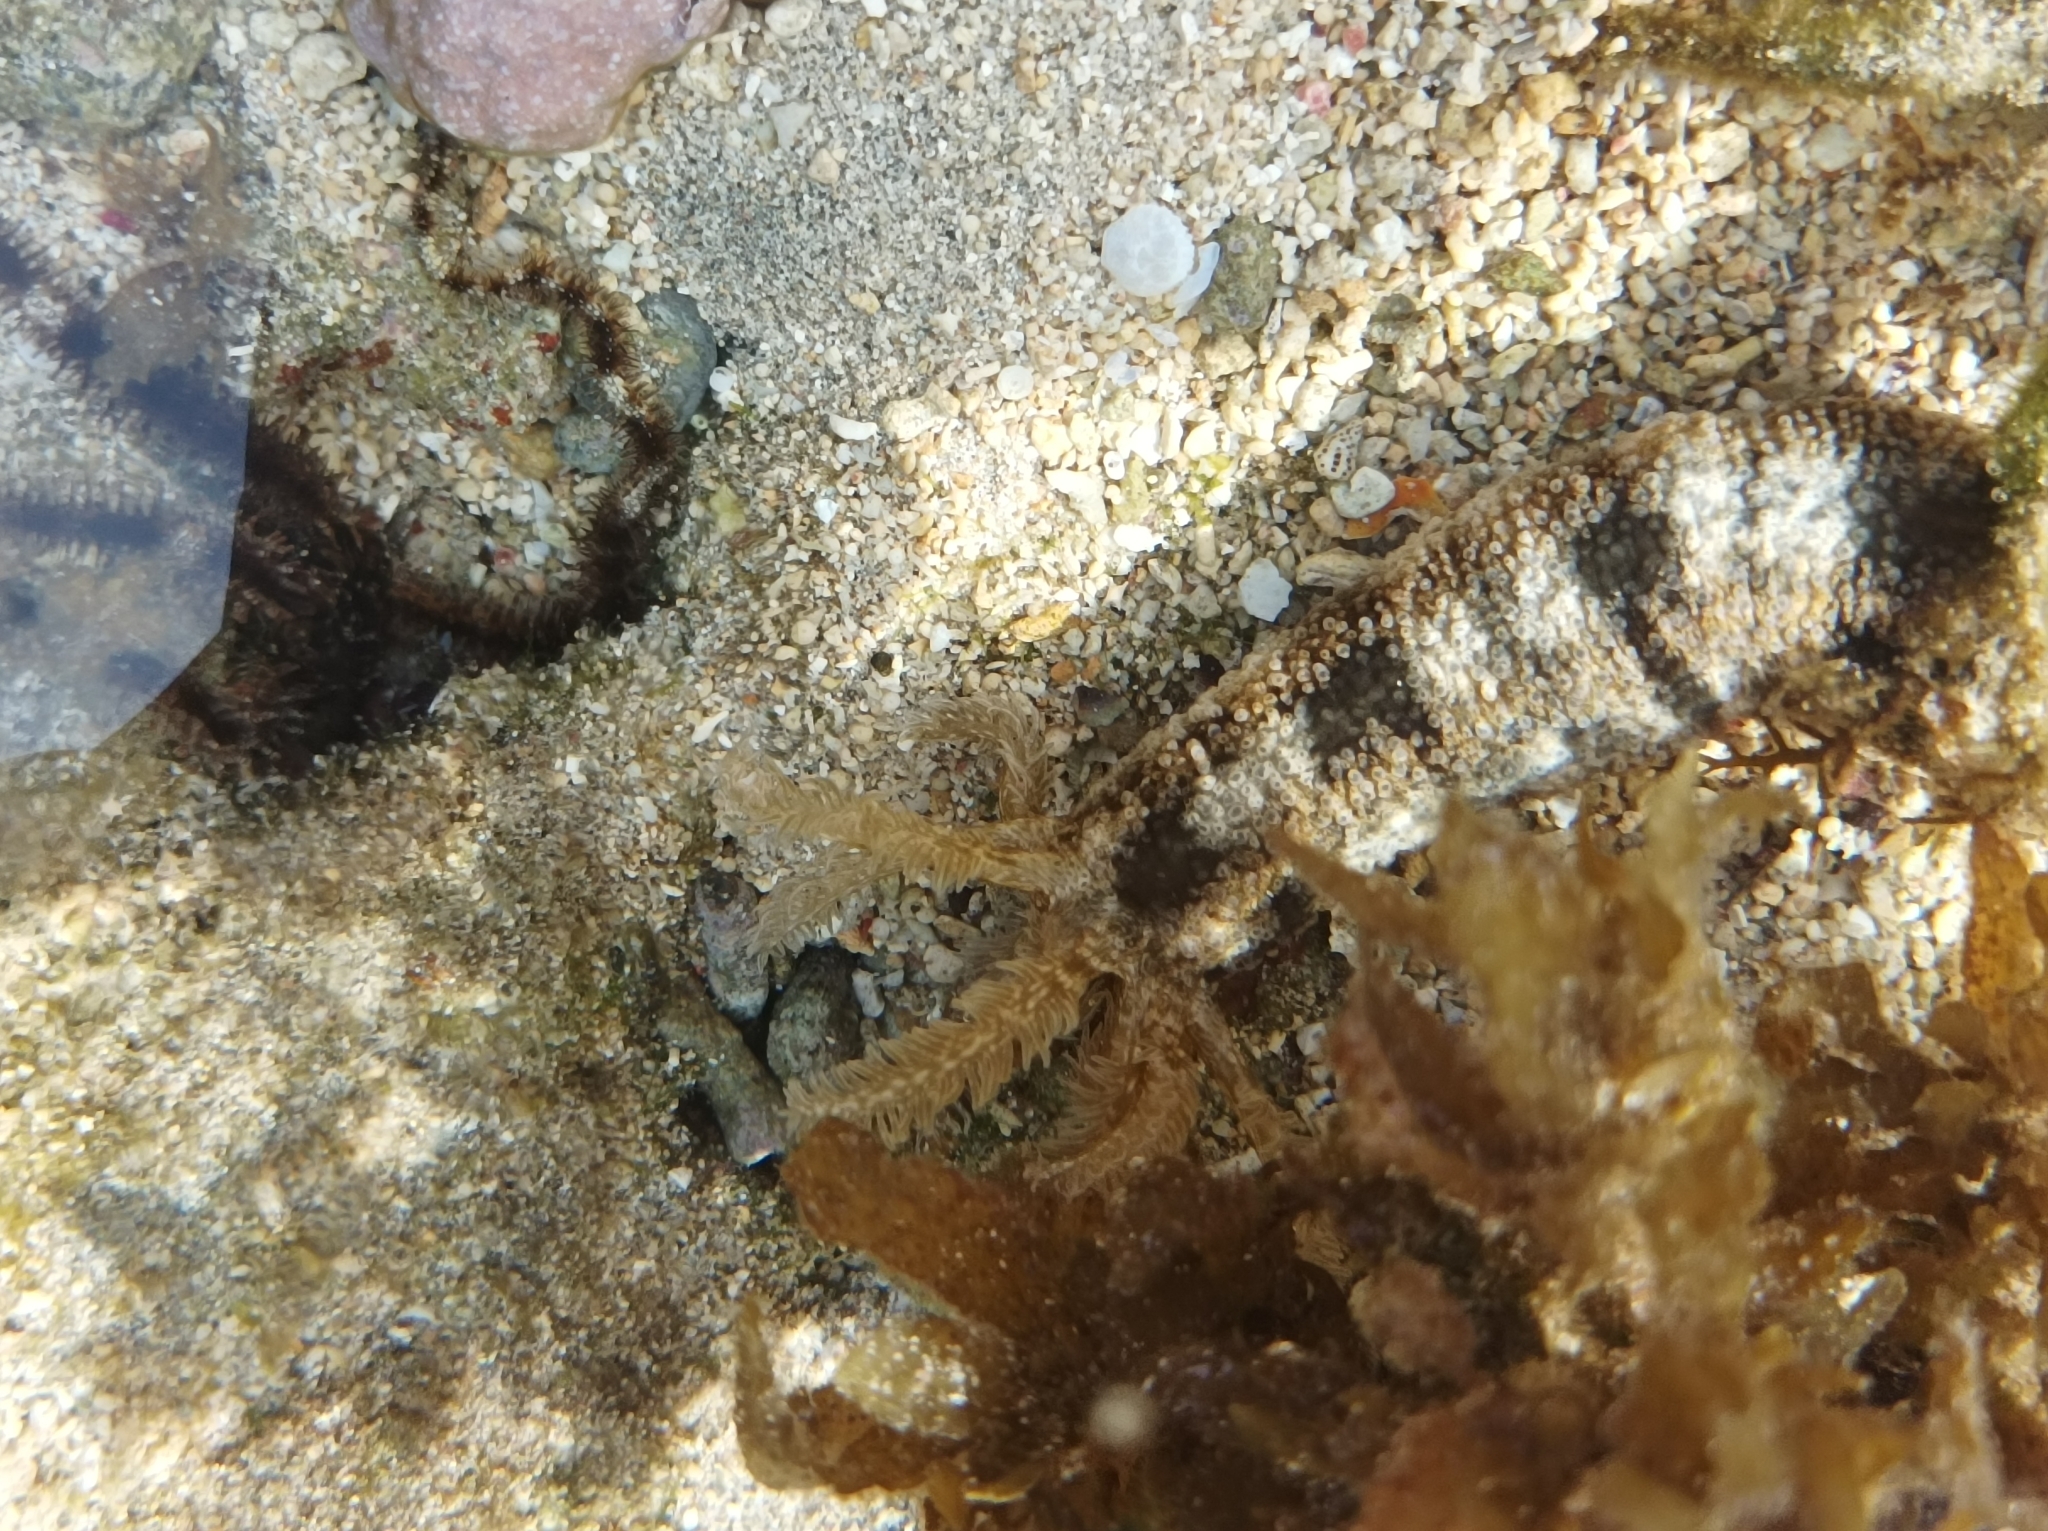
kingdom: Animalia
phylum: Echinodermata
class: Holothuroidea
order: Apodida
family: Synaptidae
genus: Synapta
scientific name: Synapta maculata
